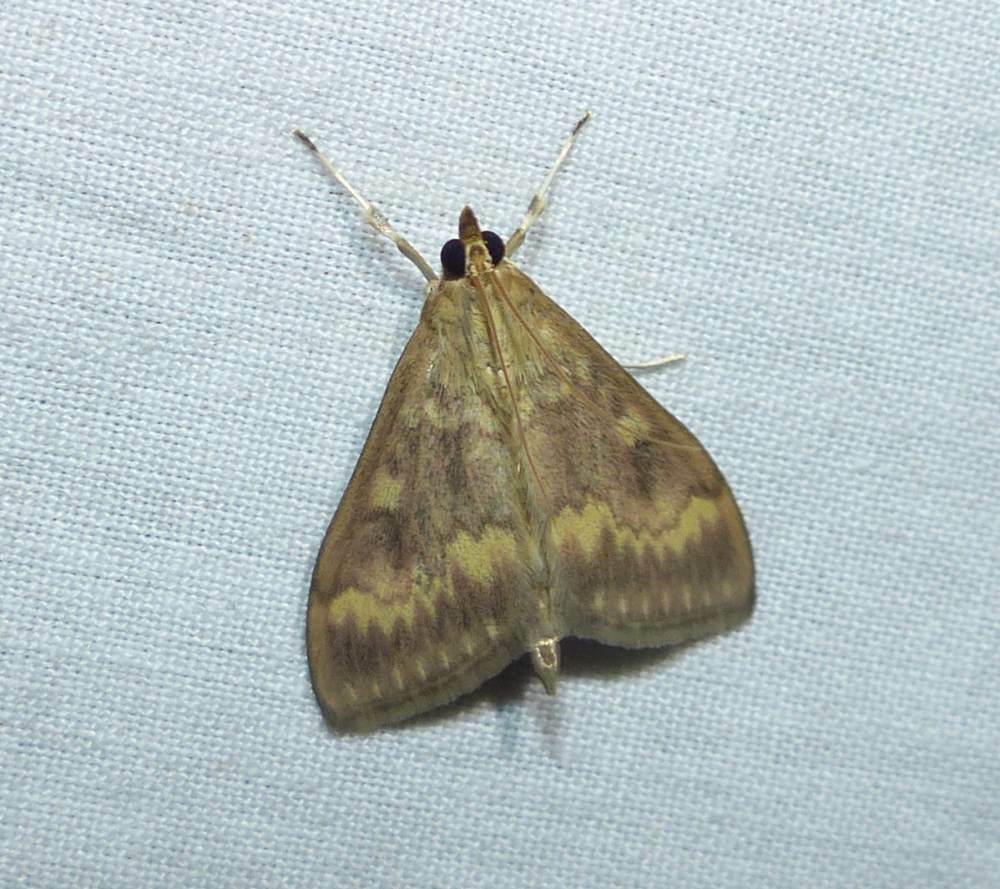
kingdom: Animalia
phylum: Arthropoda
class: Insecta
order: Lepidoptera
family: Crambidae
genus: Ostrinia
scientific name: Ostrinia nubilalis
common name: European corn borer
